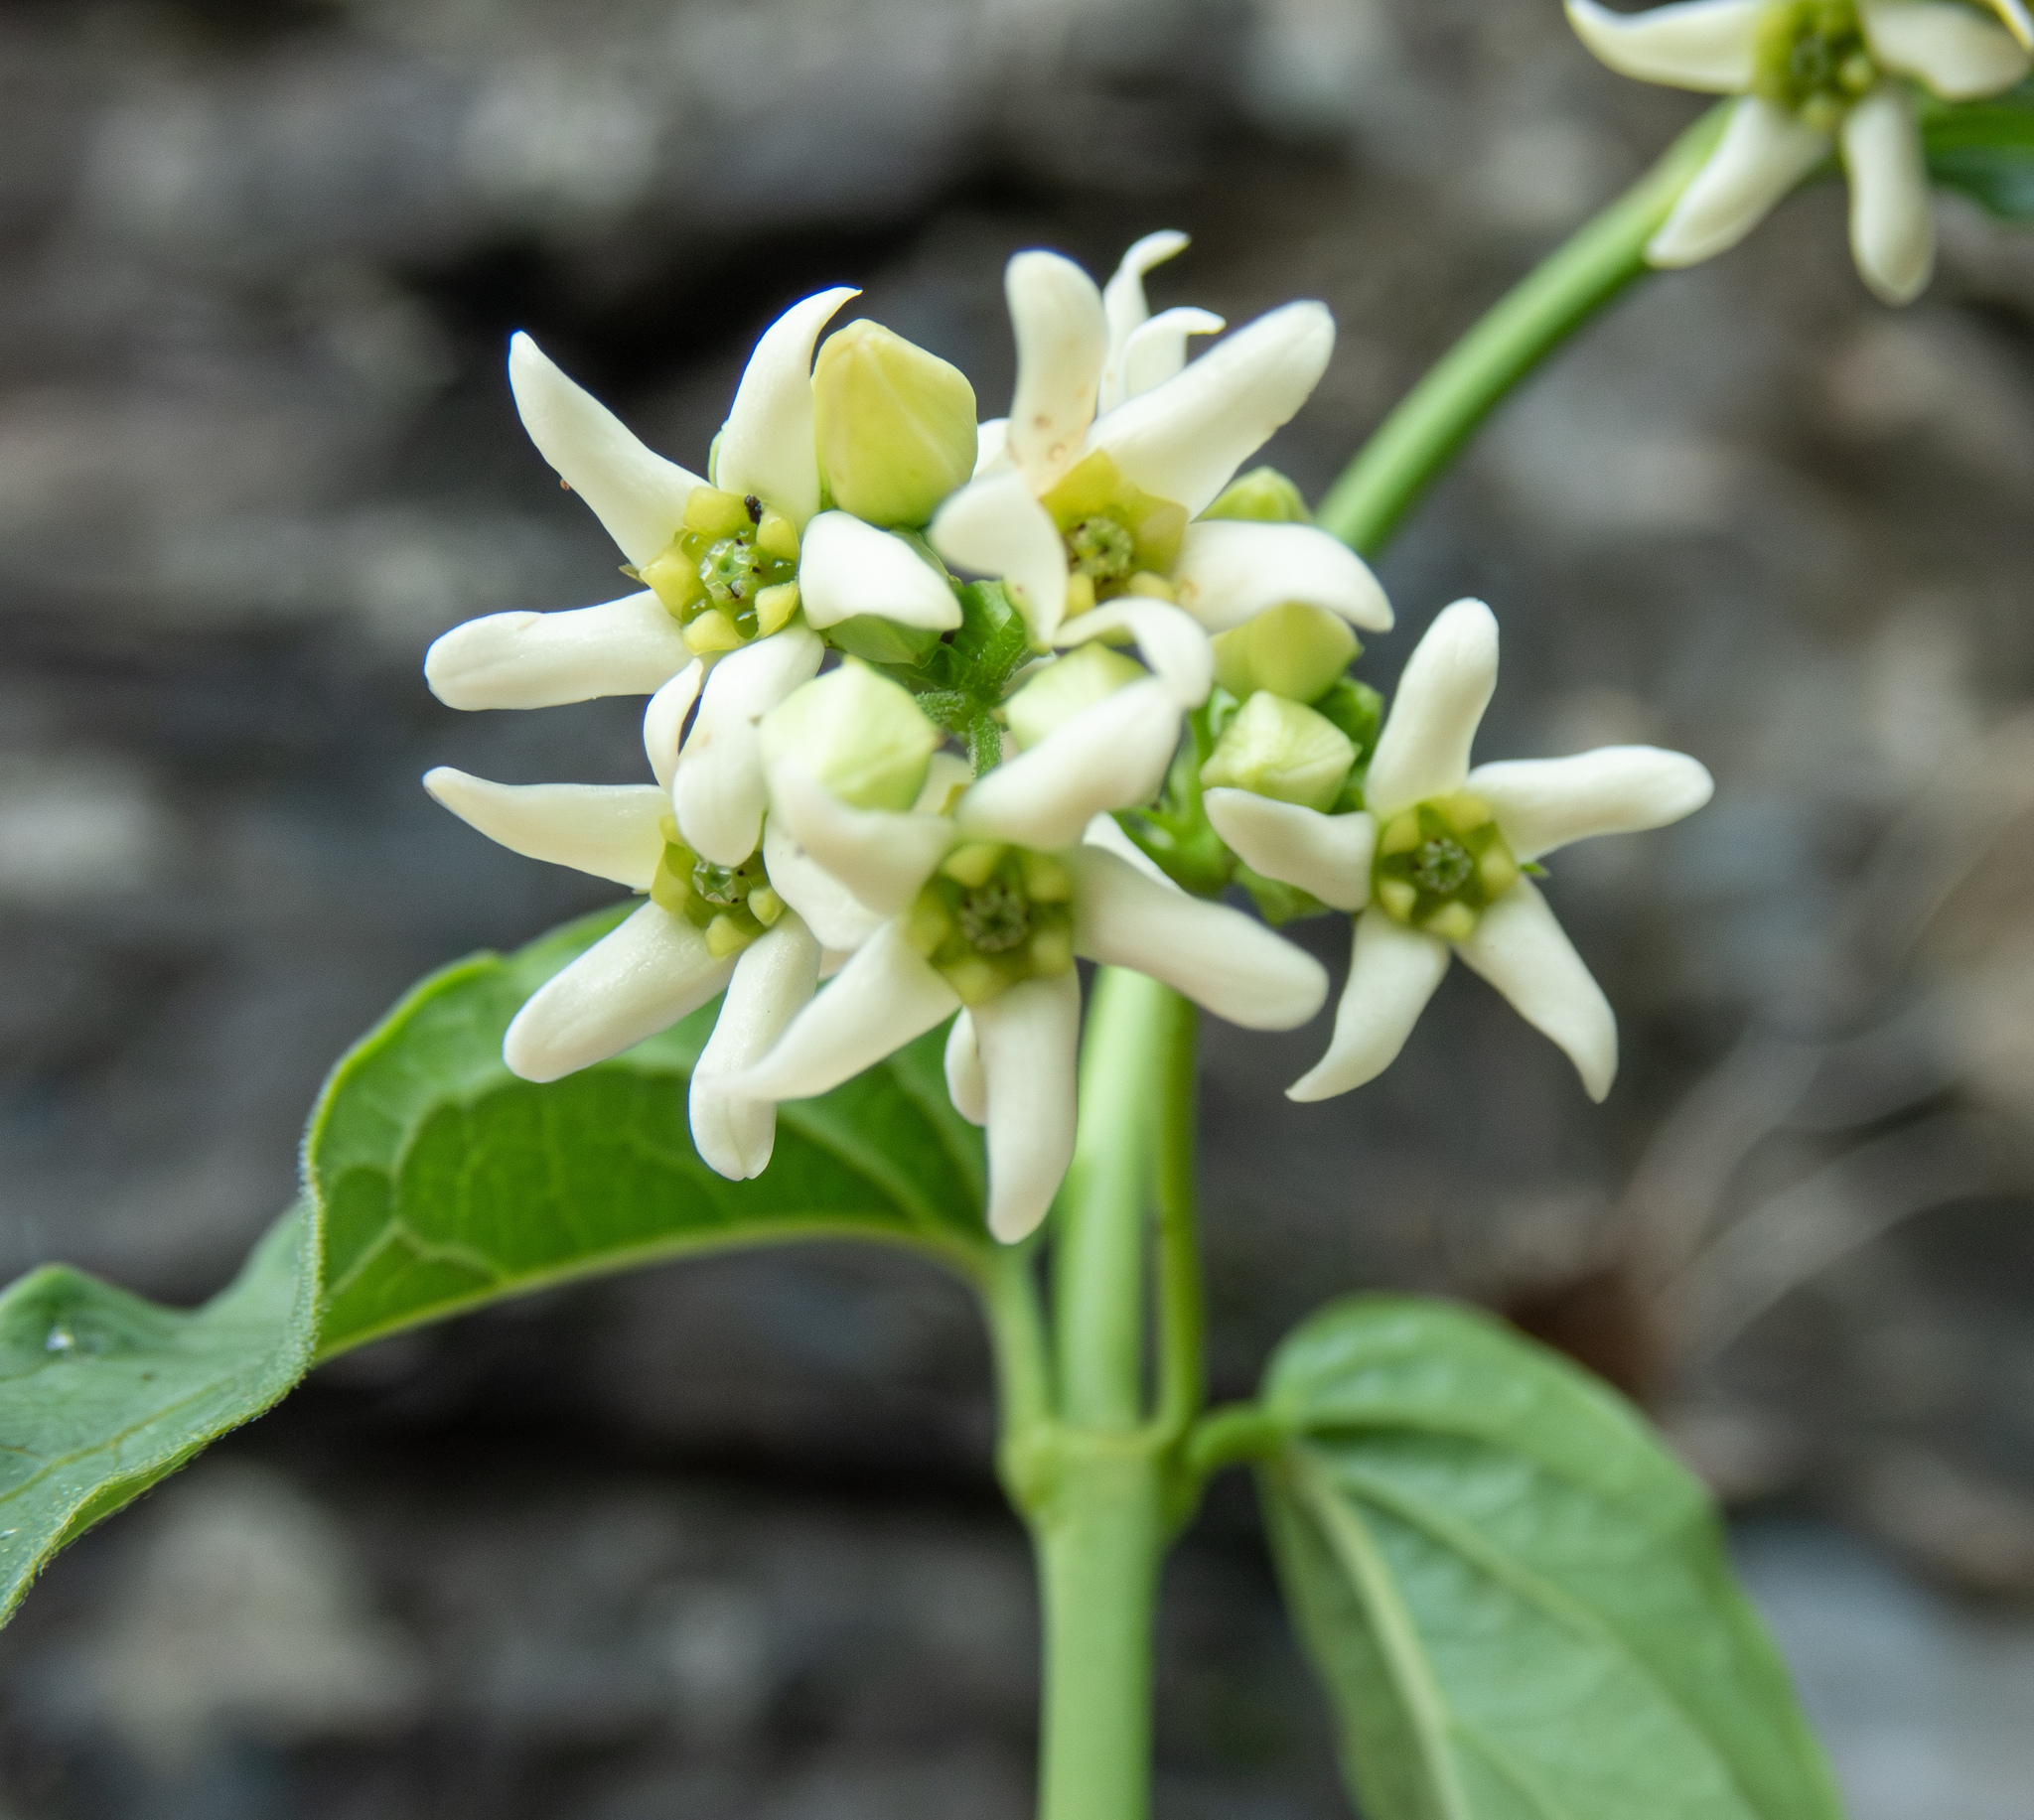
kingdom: Plantae
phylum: Tracheophyta
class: Magnoliopsida
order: Gentianales
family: Apocynaceae
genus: Vincetoxicum
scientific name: Vincetoxicum hirundinaria
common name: White swallowwort
